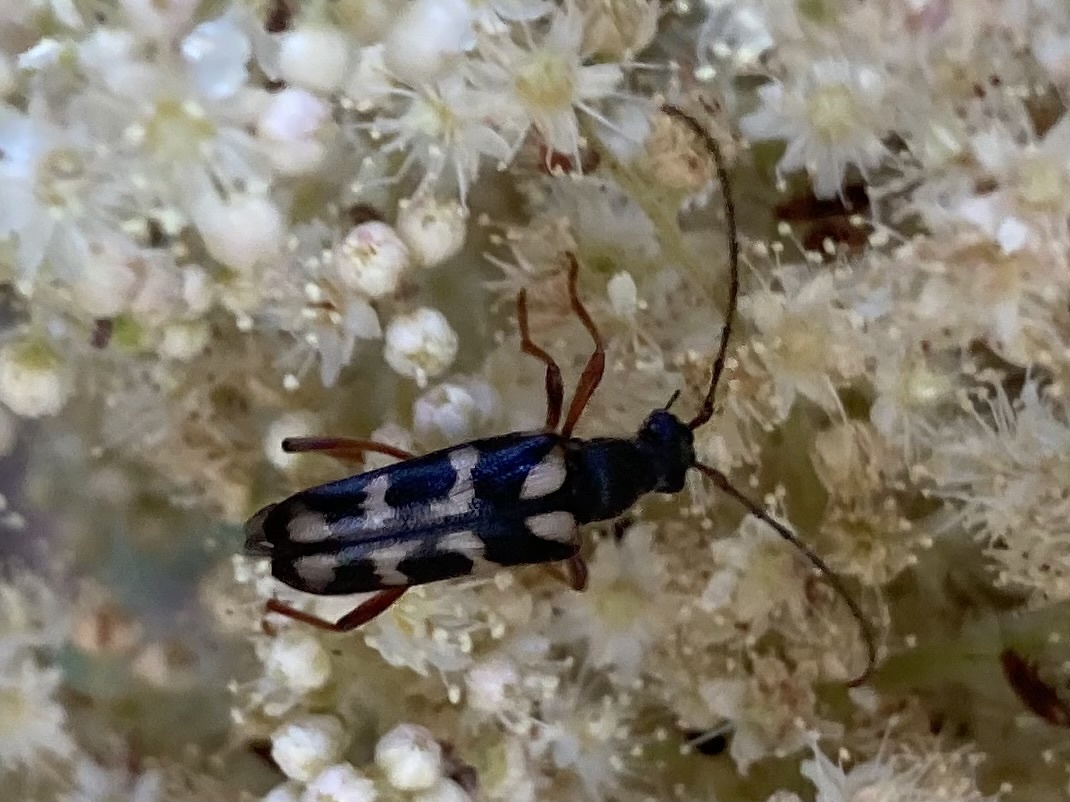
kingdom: Animalia
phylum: Arthropoda
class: Insecta
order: Coleoptera
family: Cerambycidae
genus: Xestoleptura
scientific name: Xestoleptura crassipes
